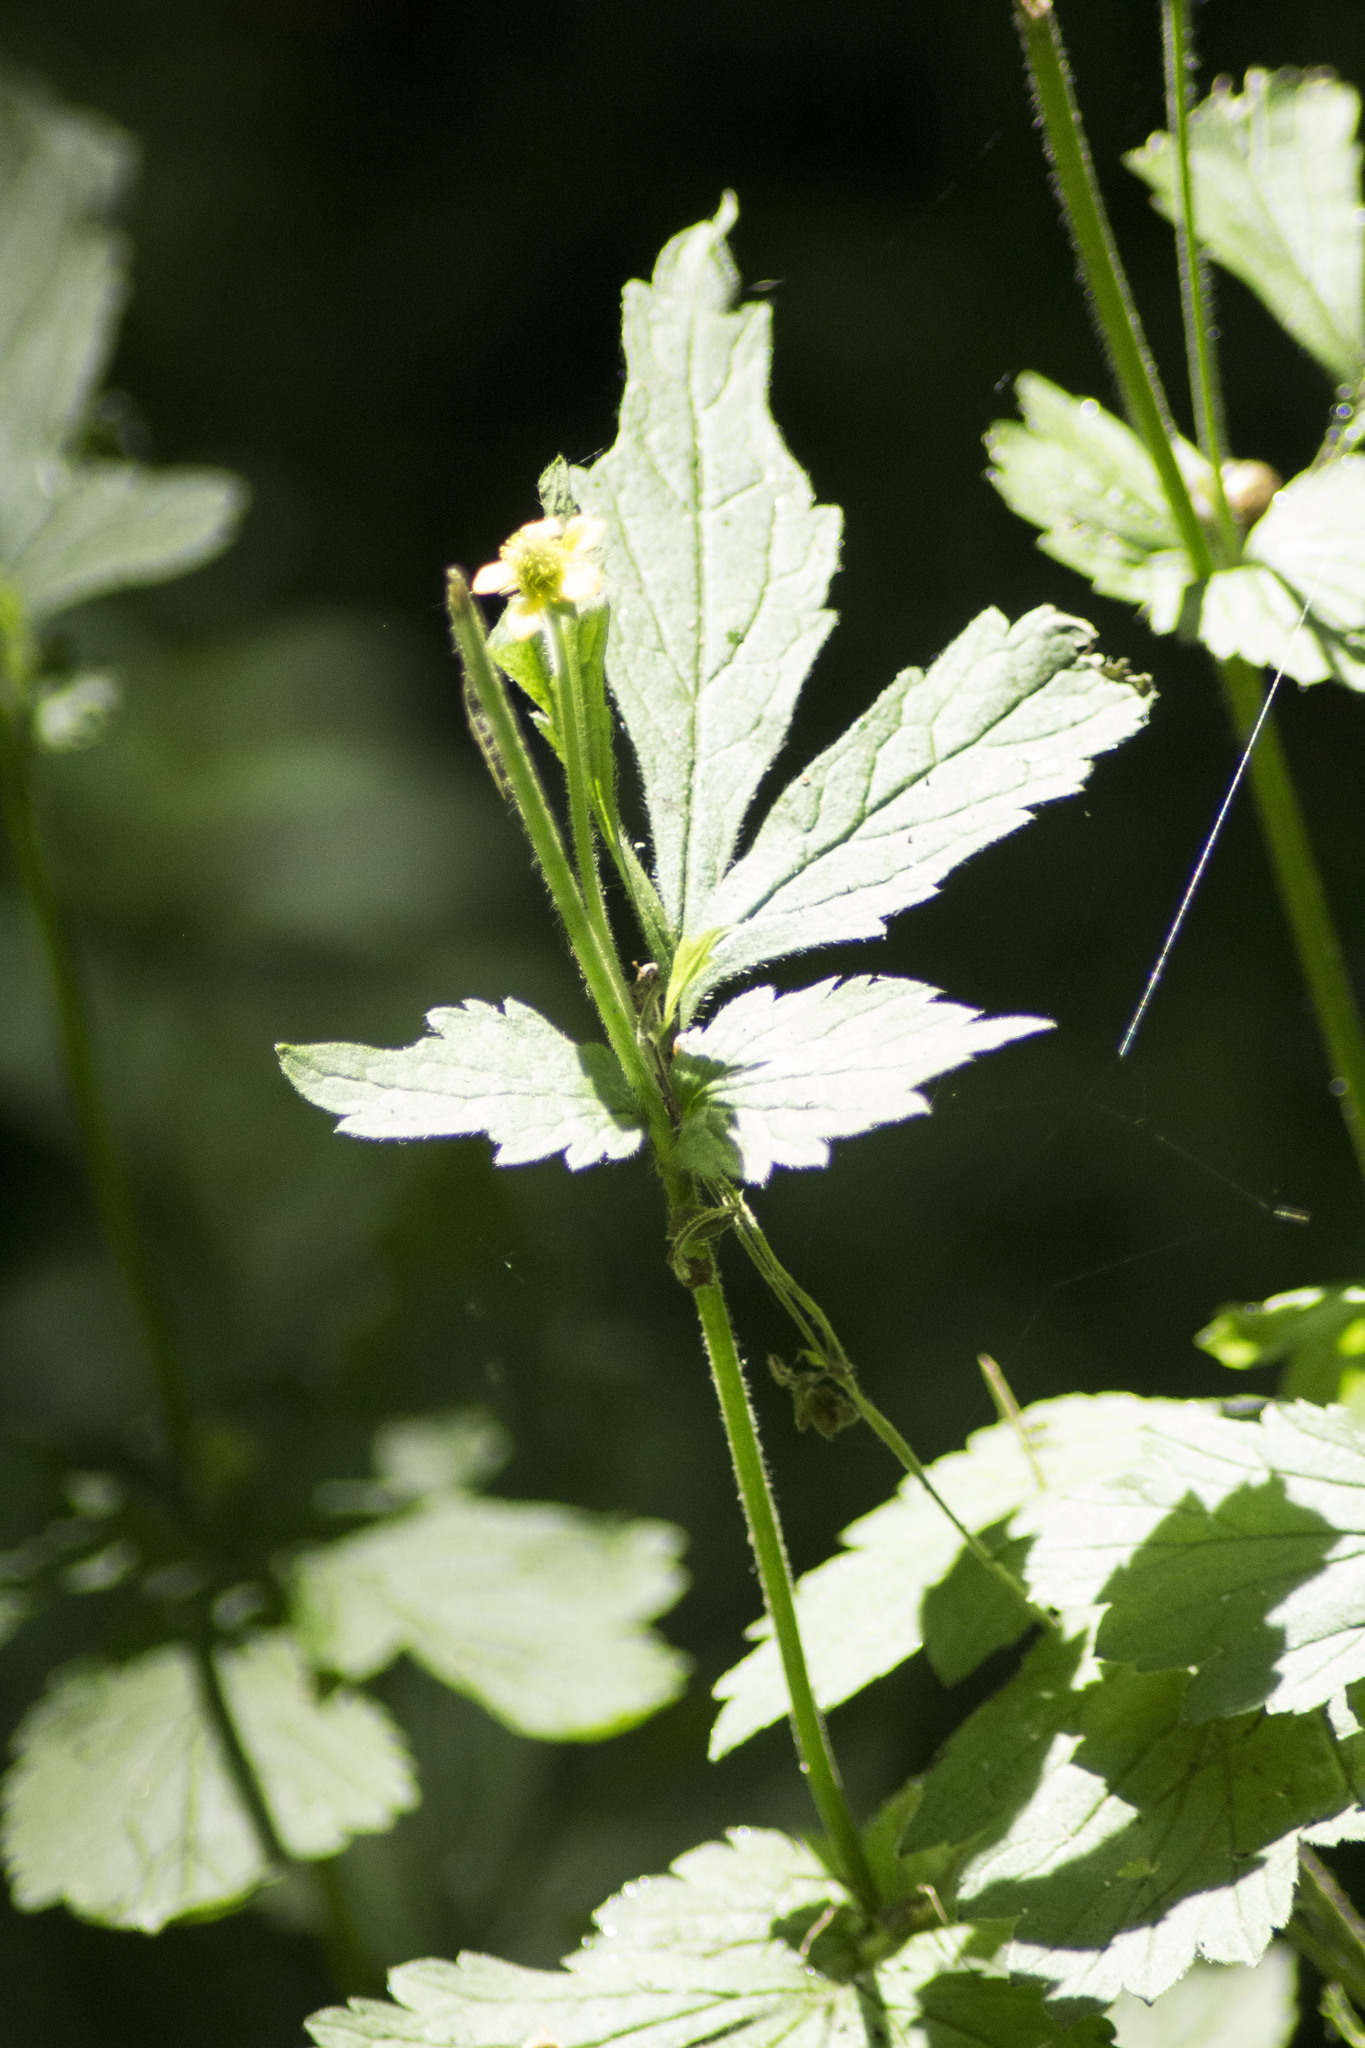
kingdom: Plantae
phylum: Tracheophyta
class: Magnoliopsida
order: Rosales
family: Rosaceae
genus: Geum
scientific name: Geum urbanum
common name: Wood avens
